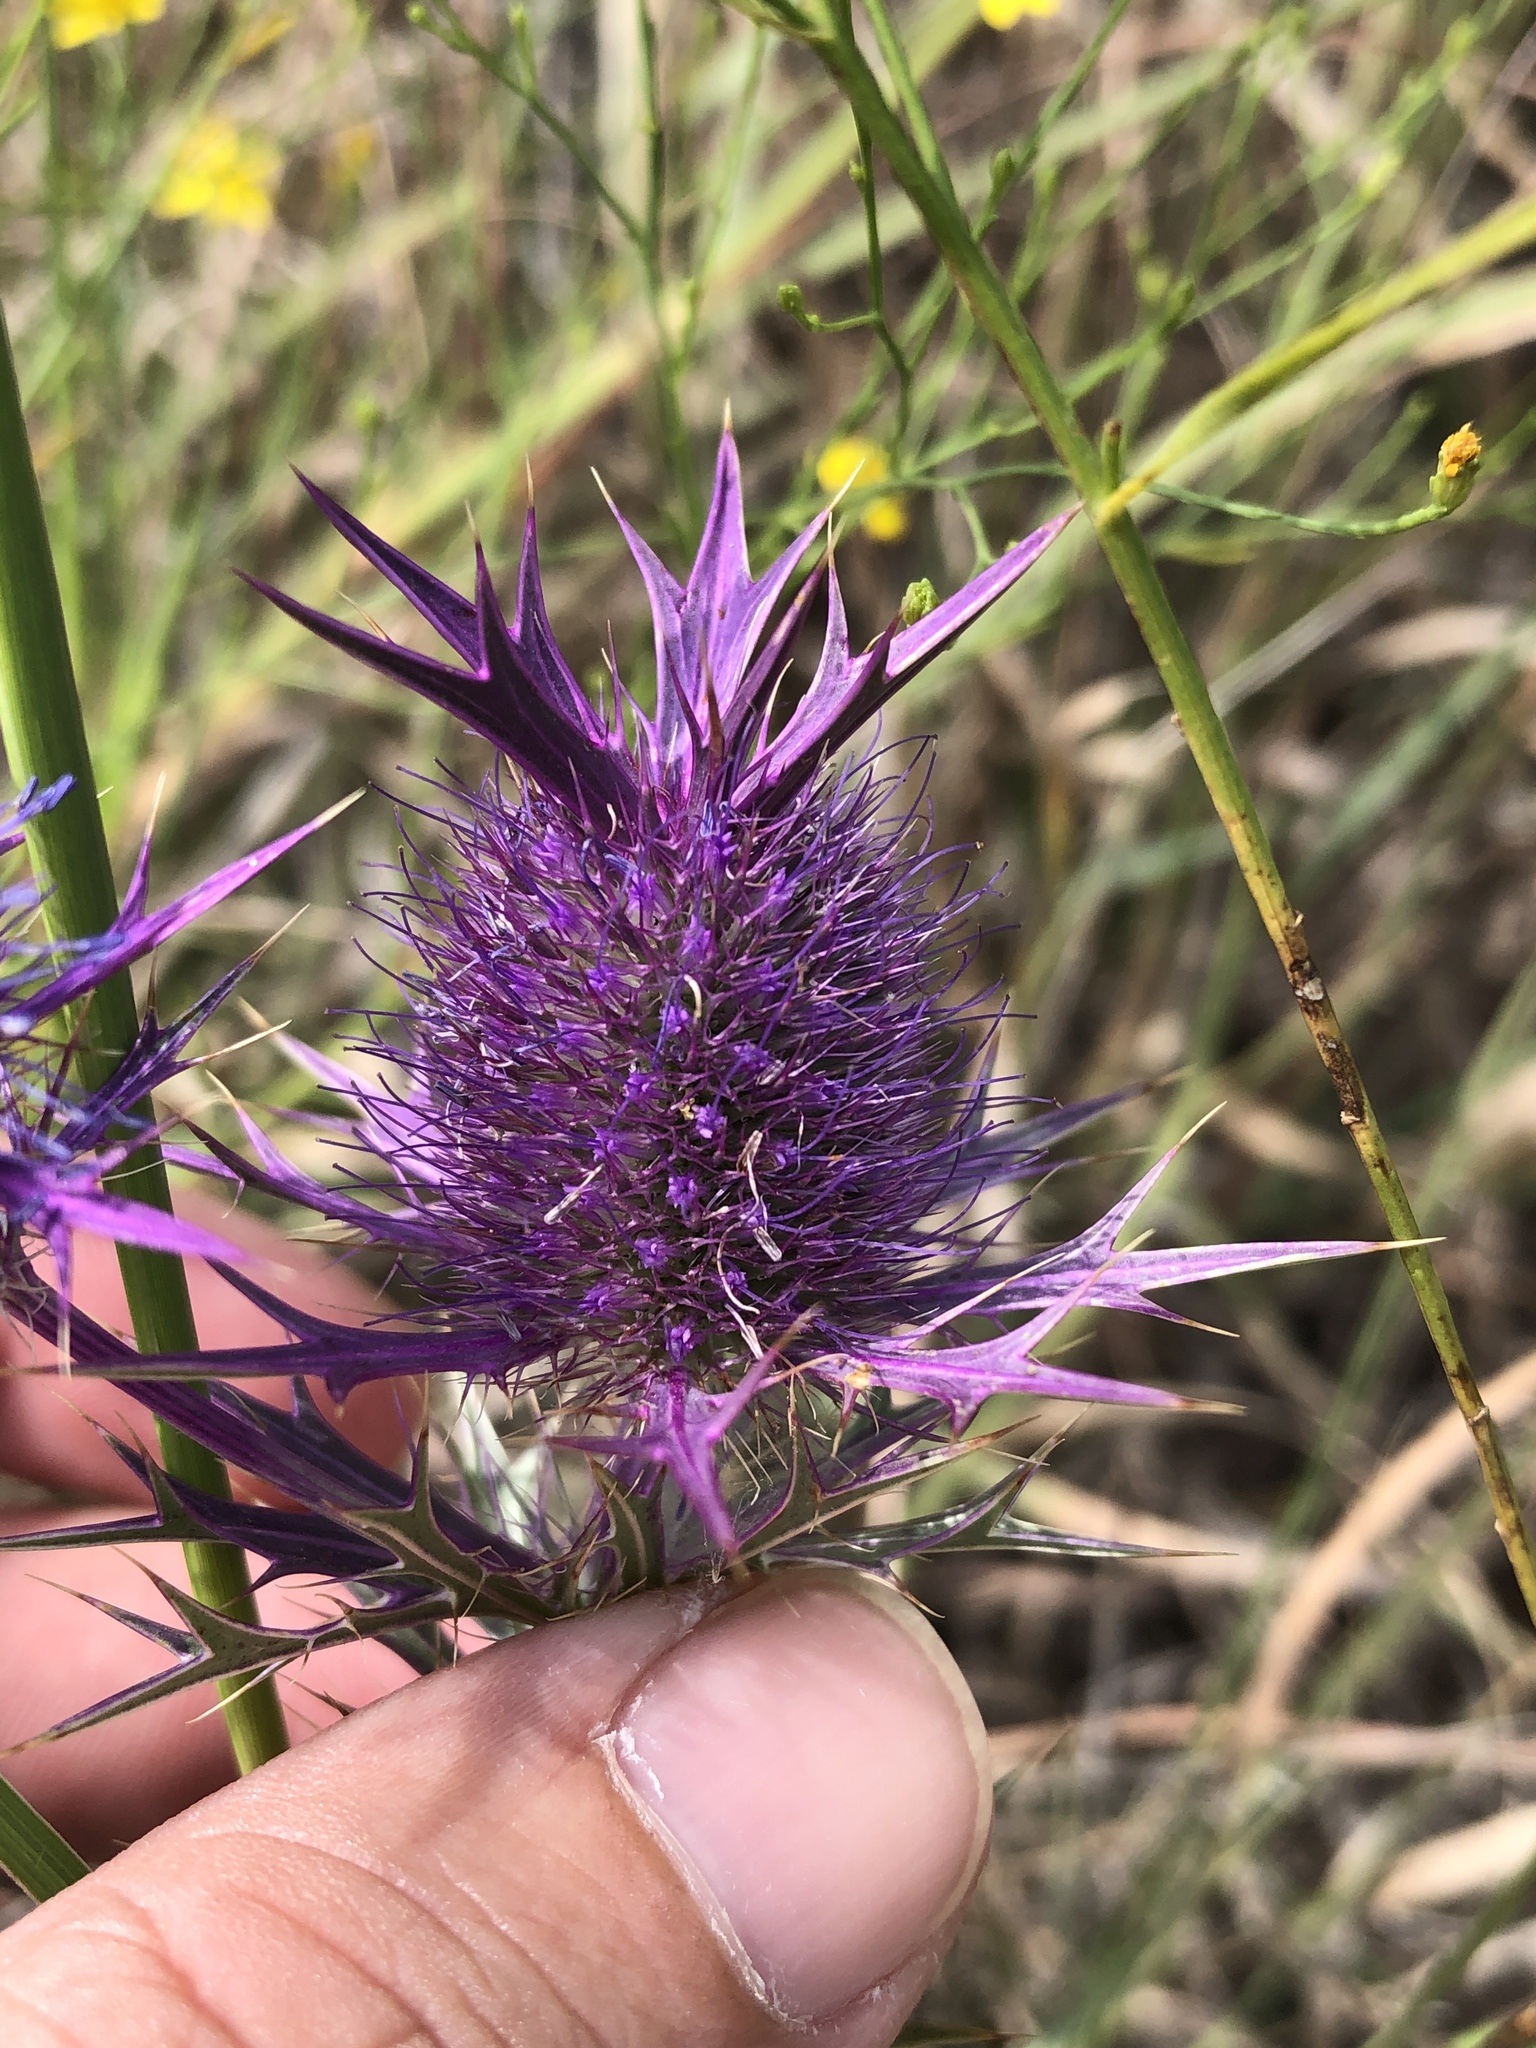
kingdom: Plantae
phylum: Tracheophyta
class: Magnoliopsida
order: Apiales
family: Apiaceae
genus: Eryngium
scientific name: Eryngium leavenworthii
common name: Leavenworth's eryngo
